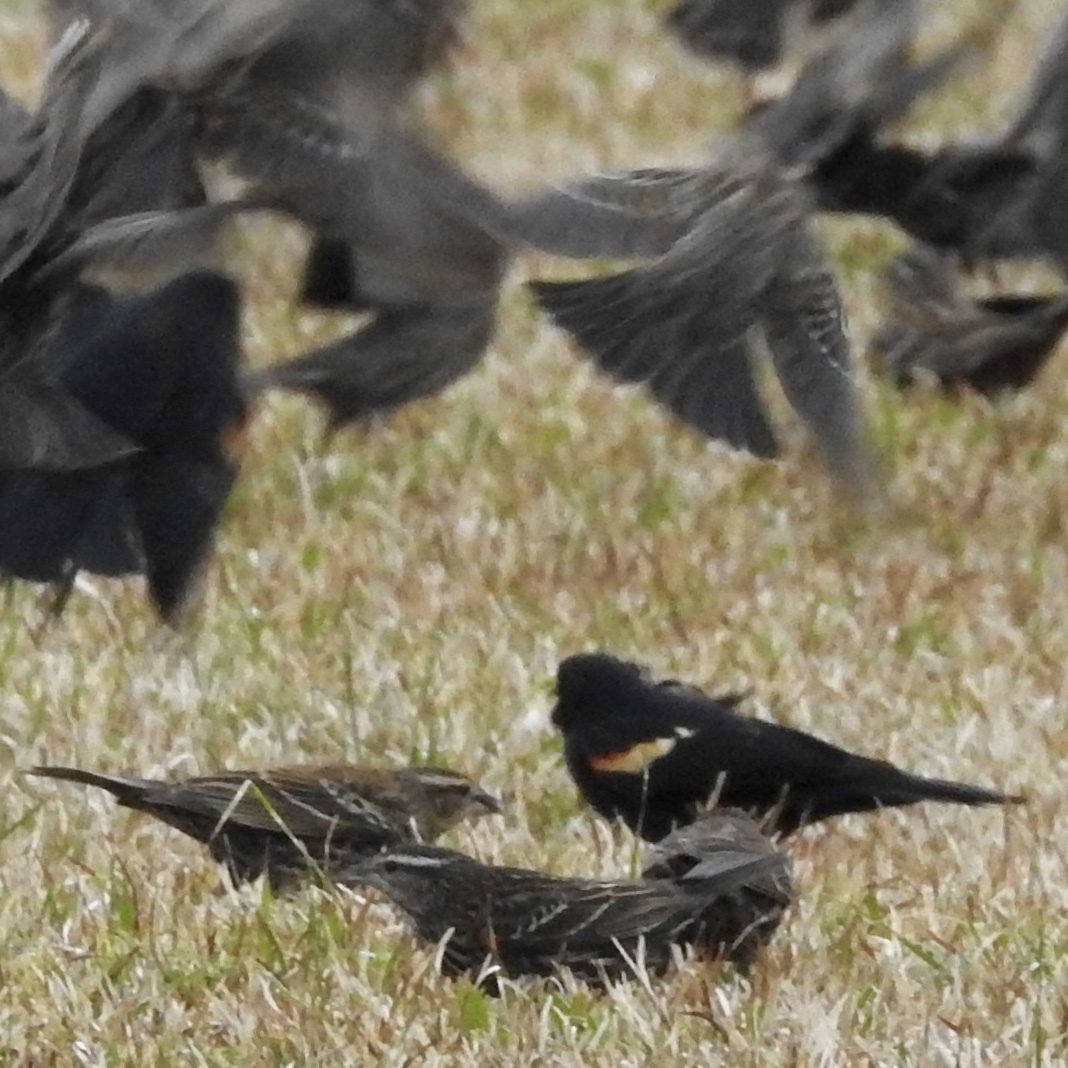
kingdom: Animalia
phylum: Chordata
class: Aves
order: Passeriformes
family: Icteridae
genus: Agelaius
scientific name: Agelaius phoeniceus
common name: Red-winged blackbird
